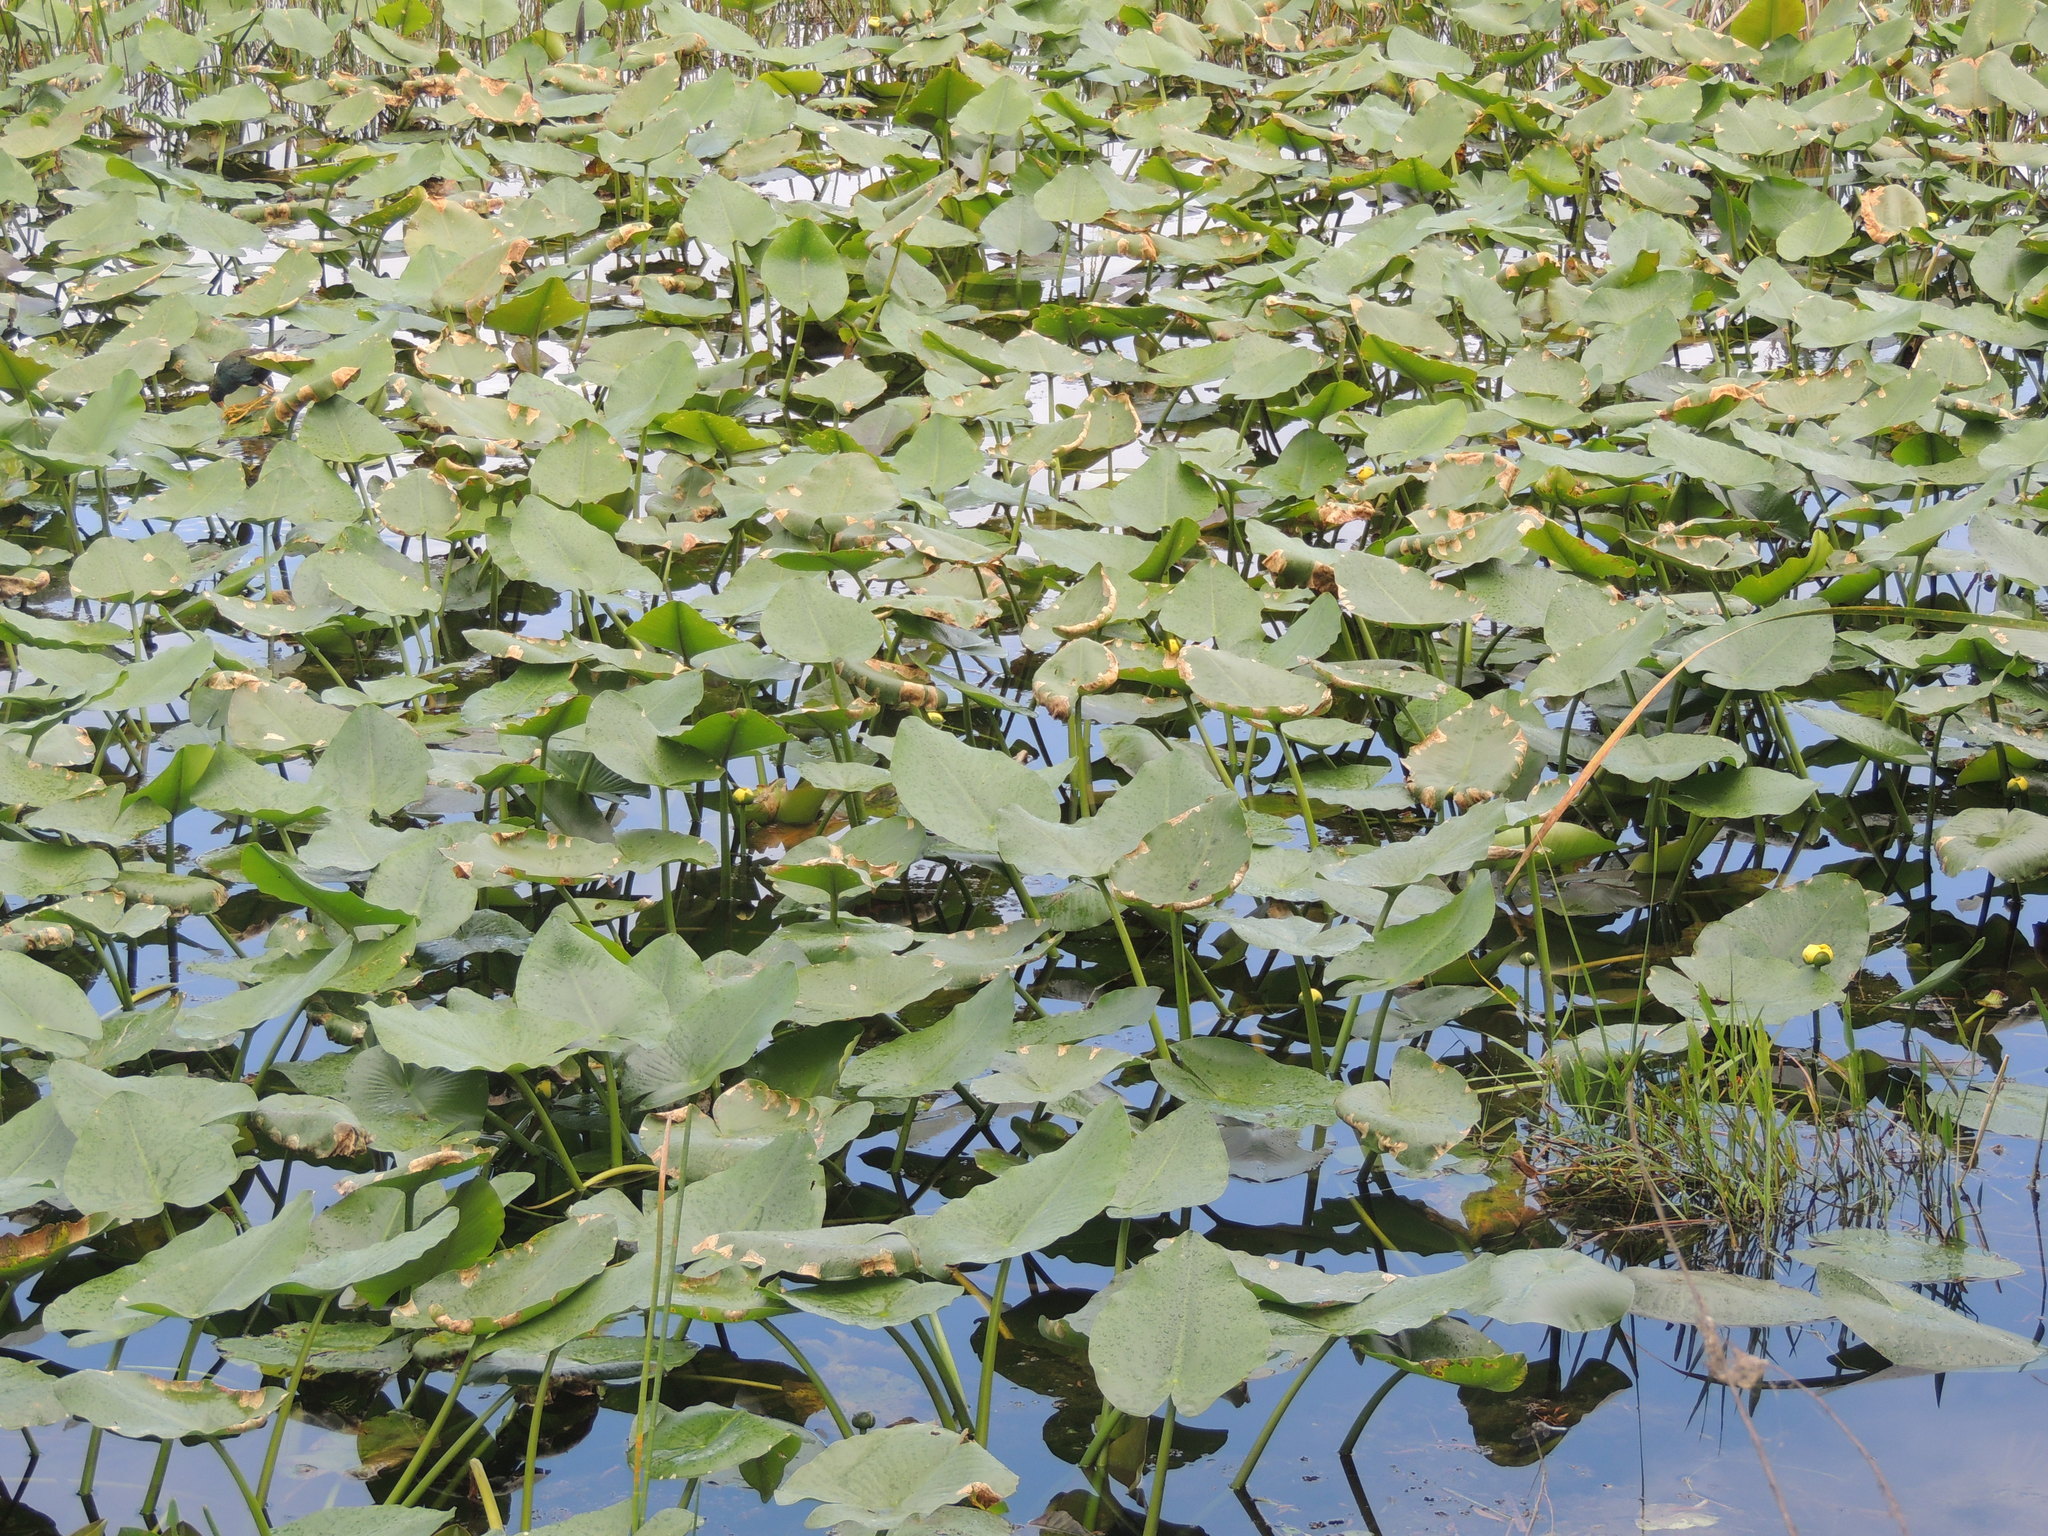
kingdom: Plantae
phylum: Tracheophyta
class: Magnoliopsida
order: Nymphaeales
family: Nymphaeaceae
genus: Nuphar
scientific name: Nuphar advena
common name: Spatter-dock
